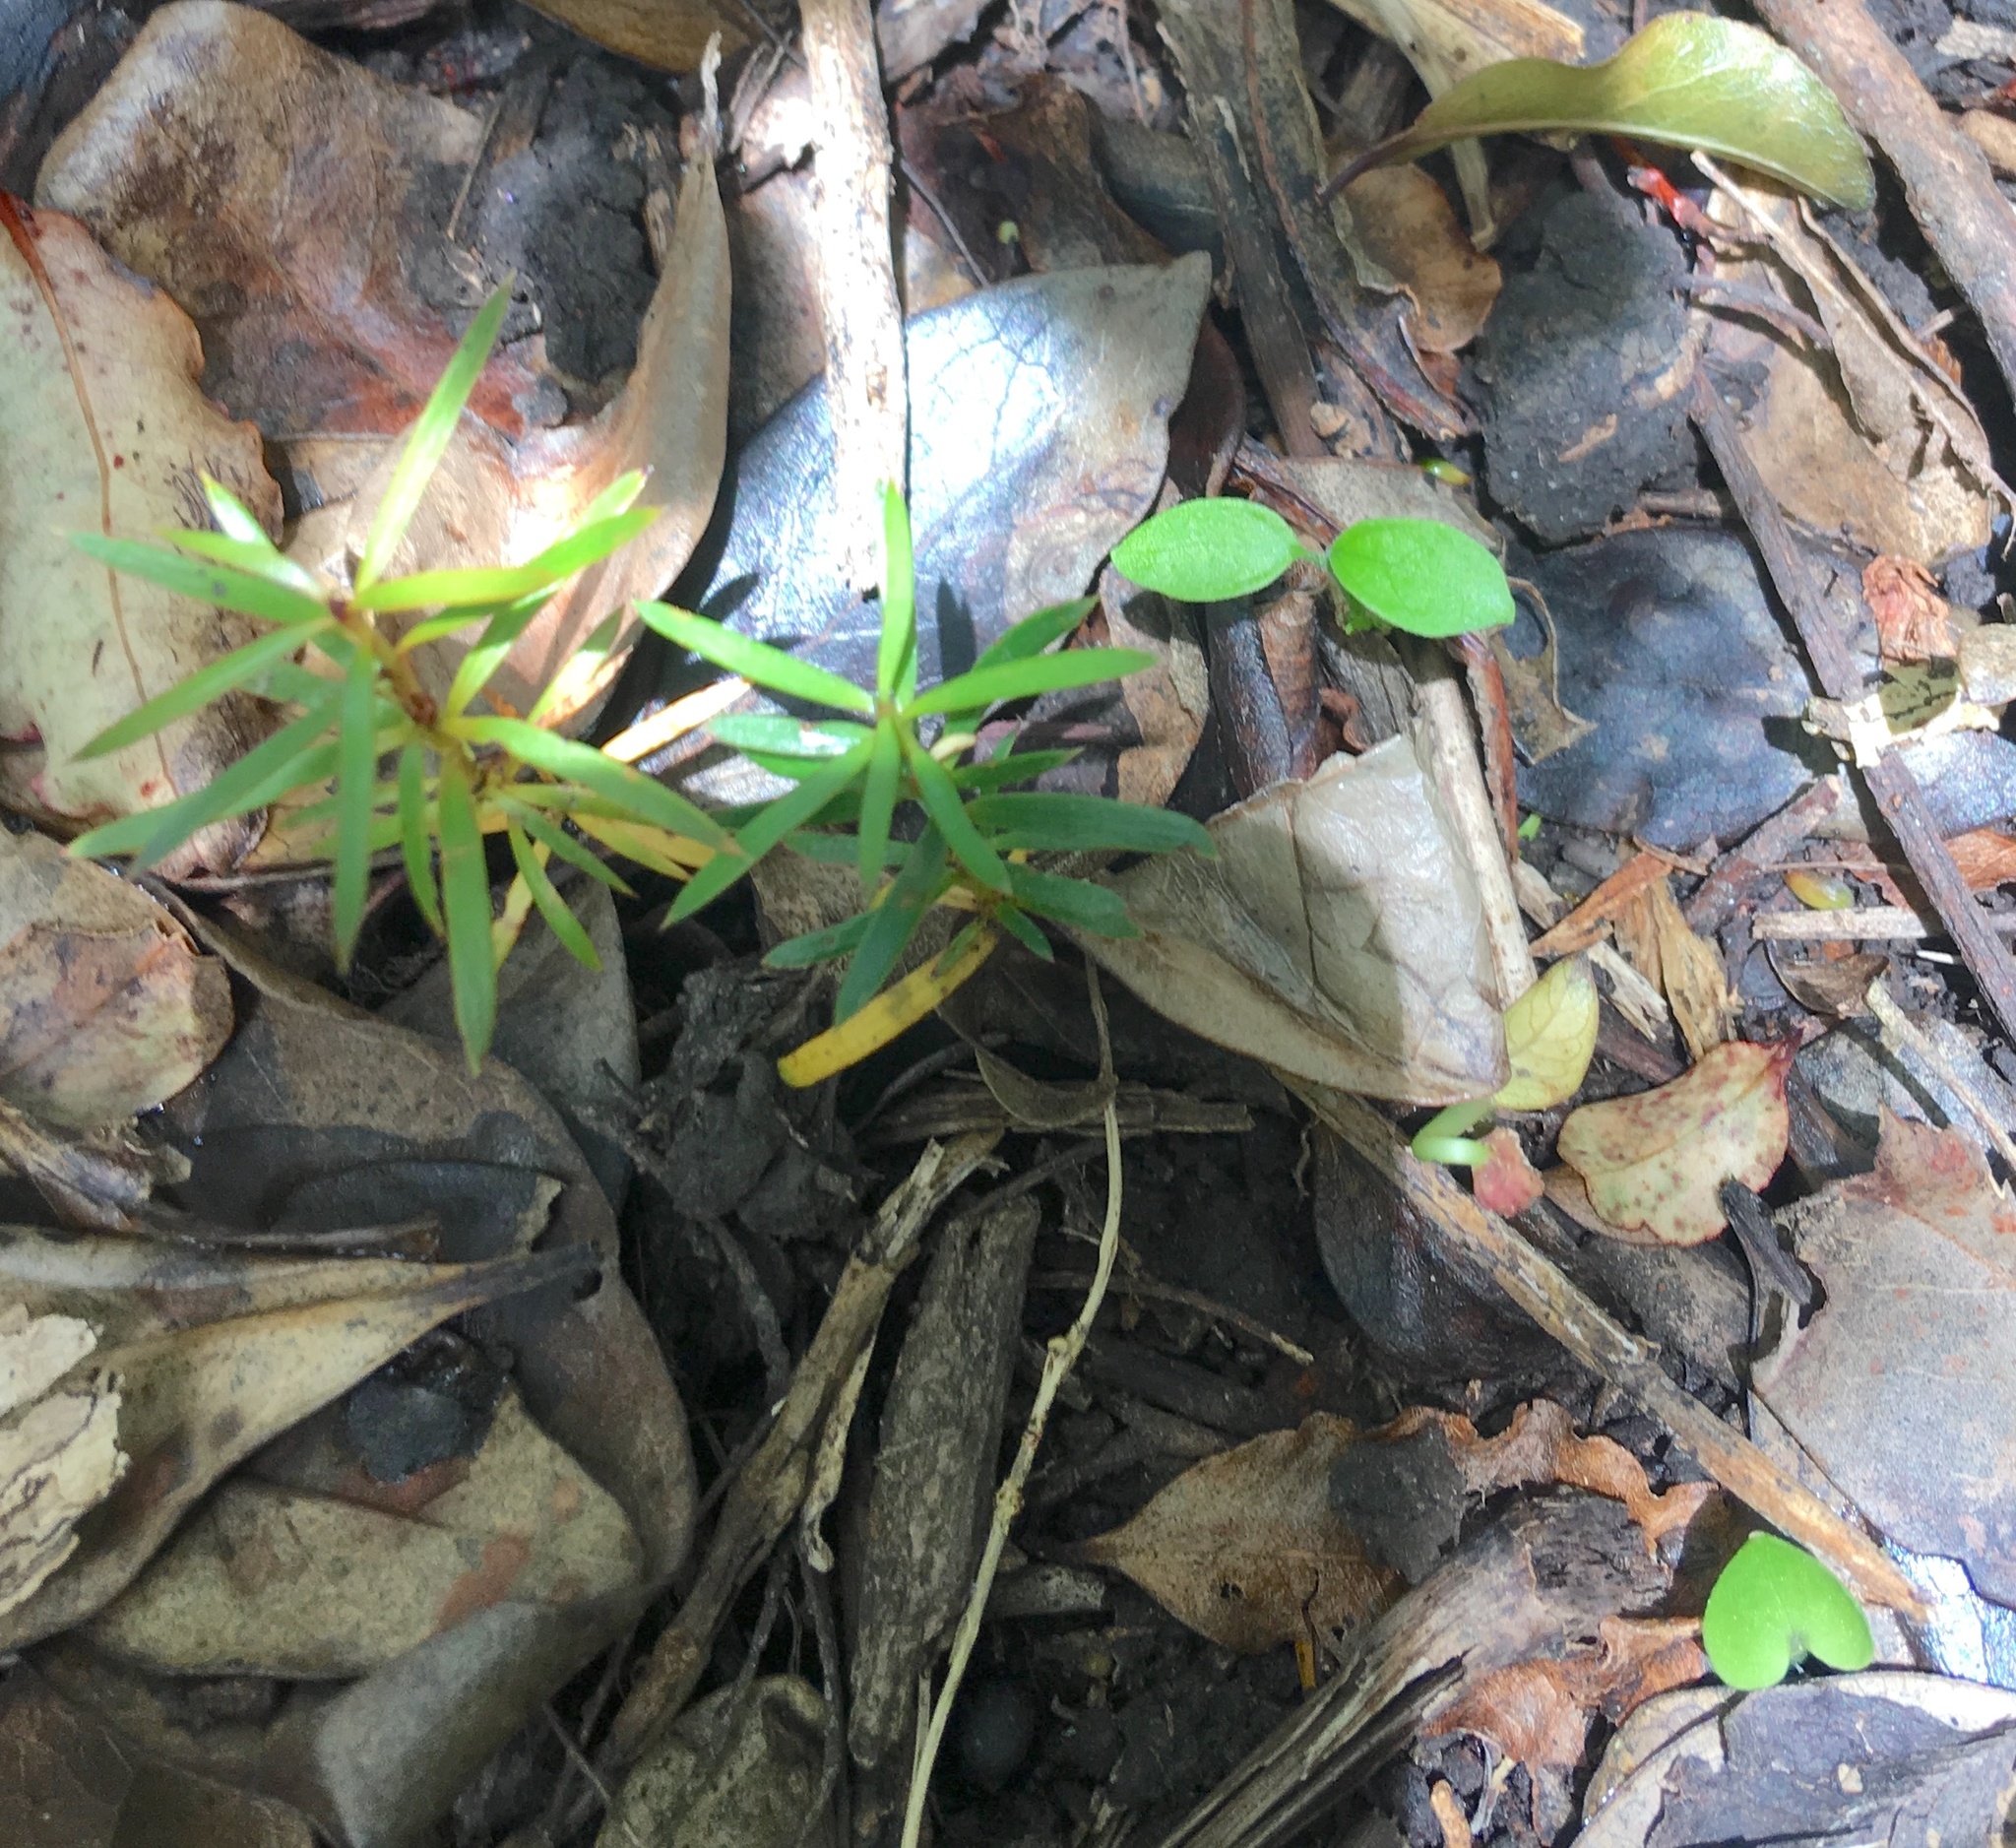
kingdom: Plantae
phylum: Tracheophyta
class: Pinopsida
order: Pinales
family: Podocarpaceae
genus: Podocarpus
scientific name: Podocarpus totara
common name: Totara
